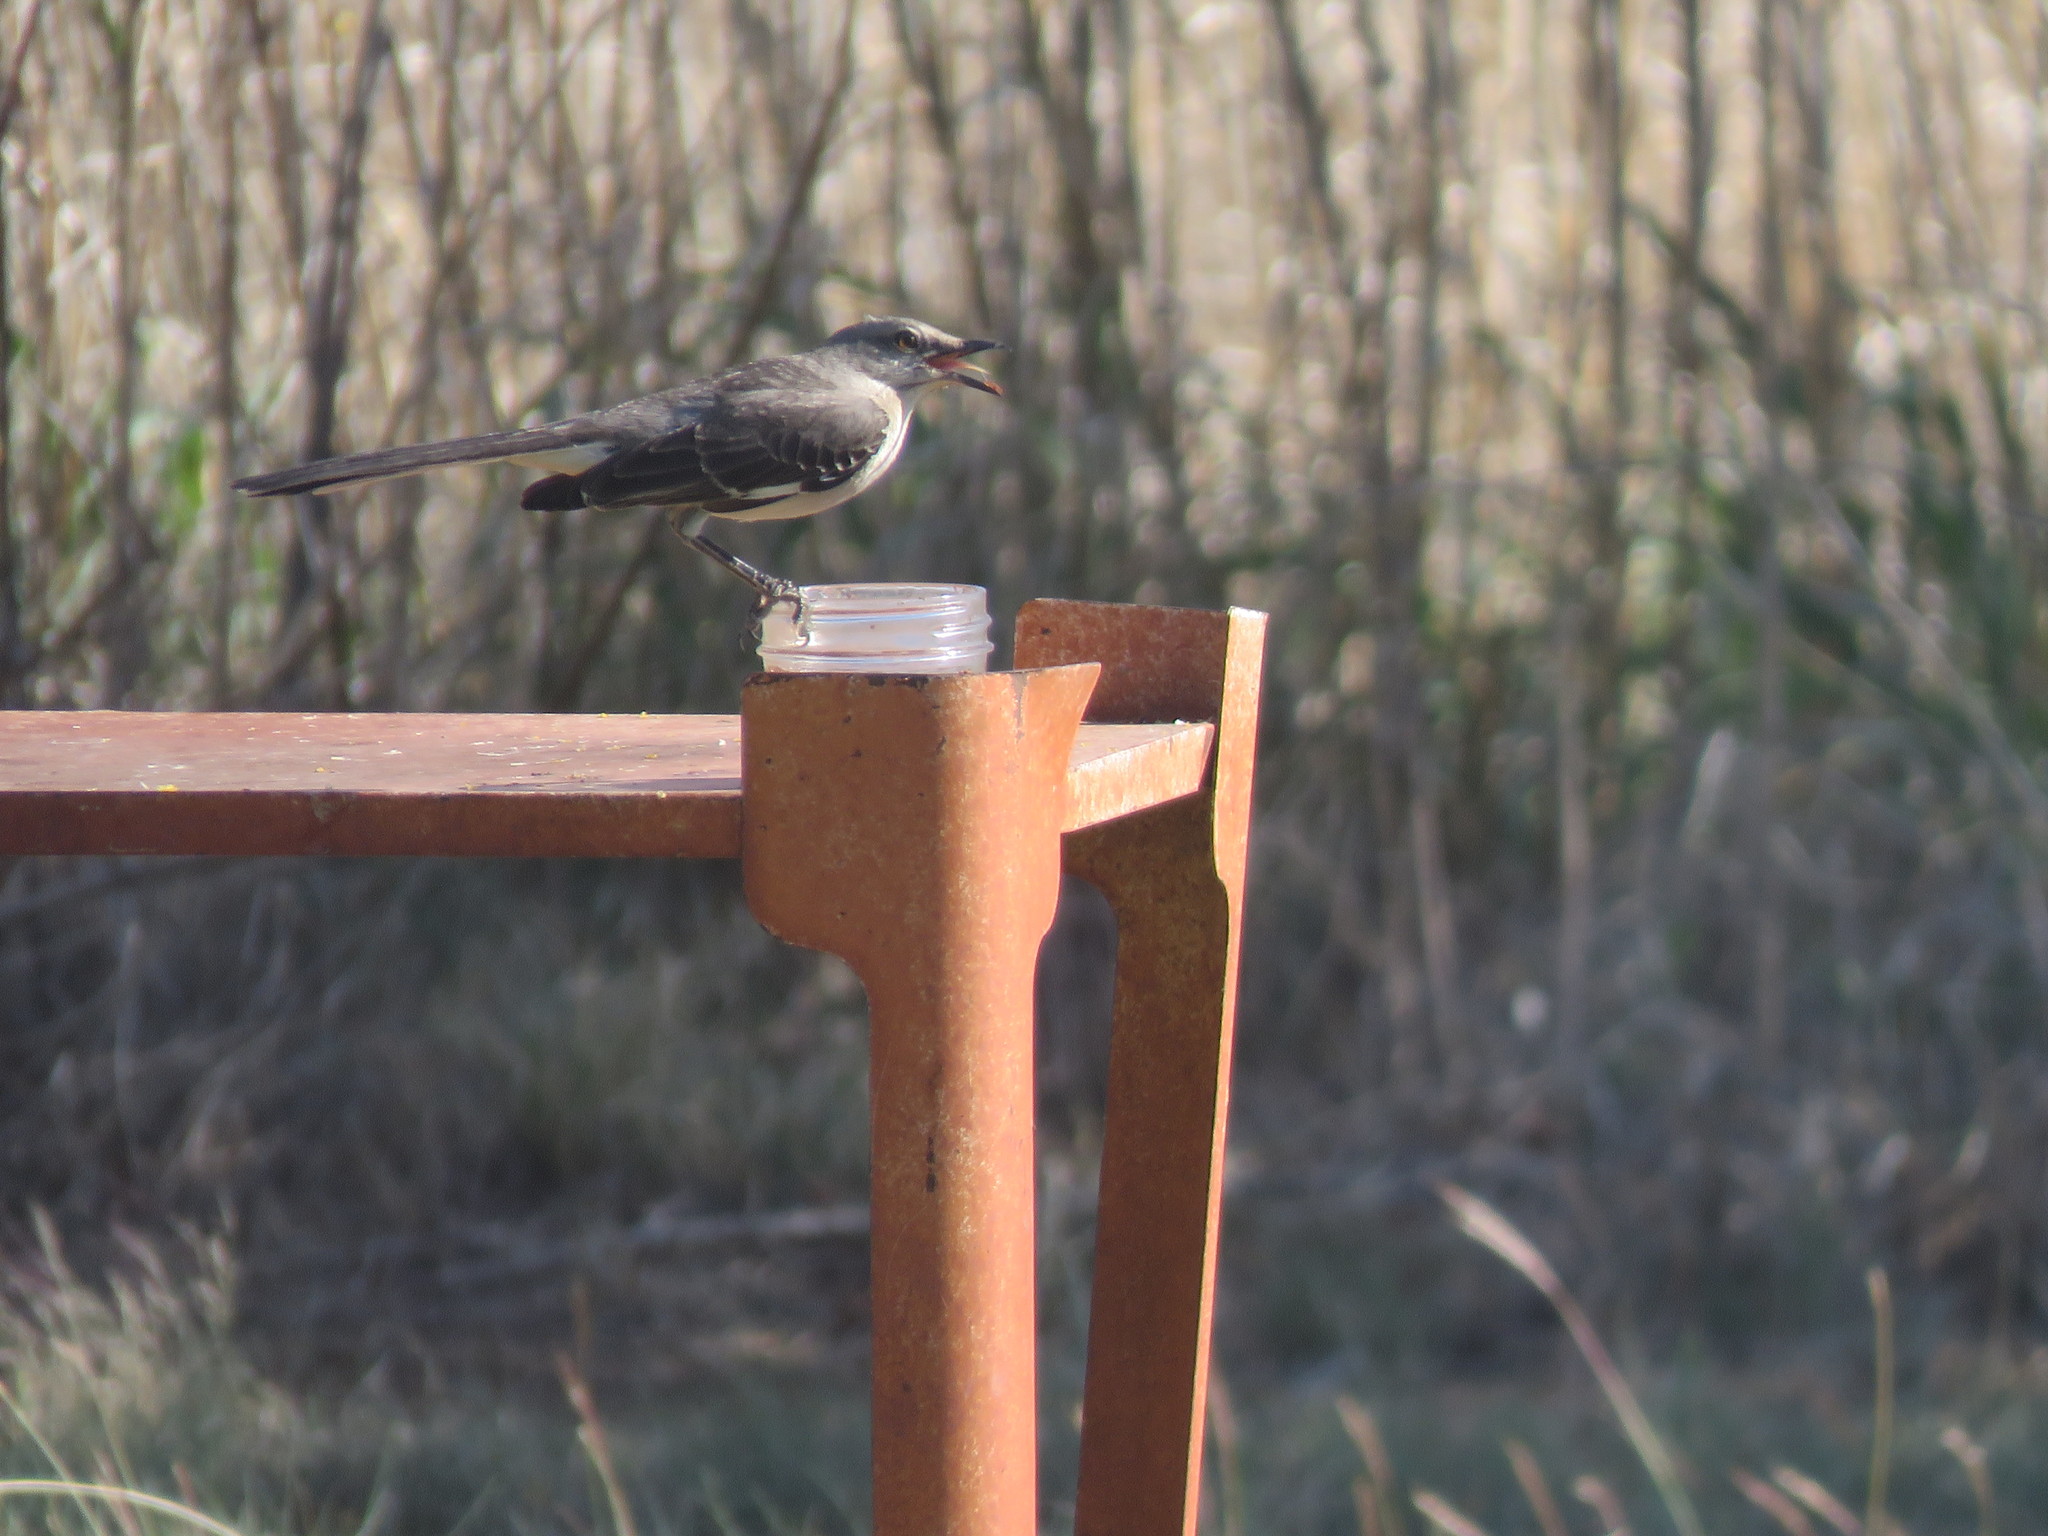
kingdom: Animalia
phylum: Chordata
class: Aves
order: Passeriformes
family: Mimidae
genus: Mimus
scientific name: Mimus polyglottos
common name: Northern mockingbird
